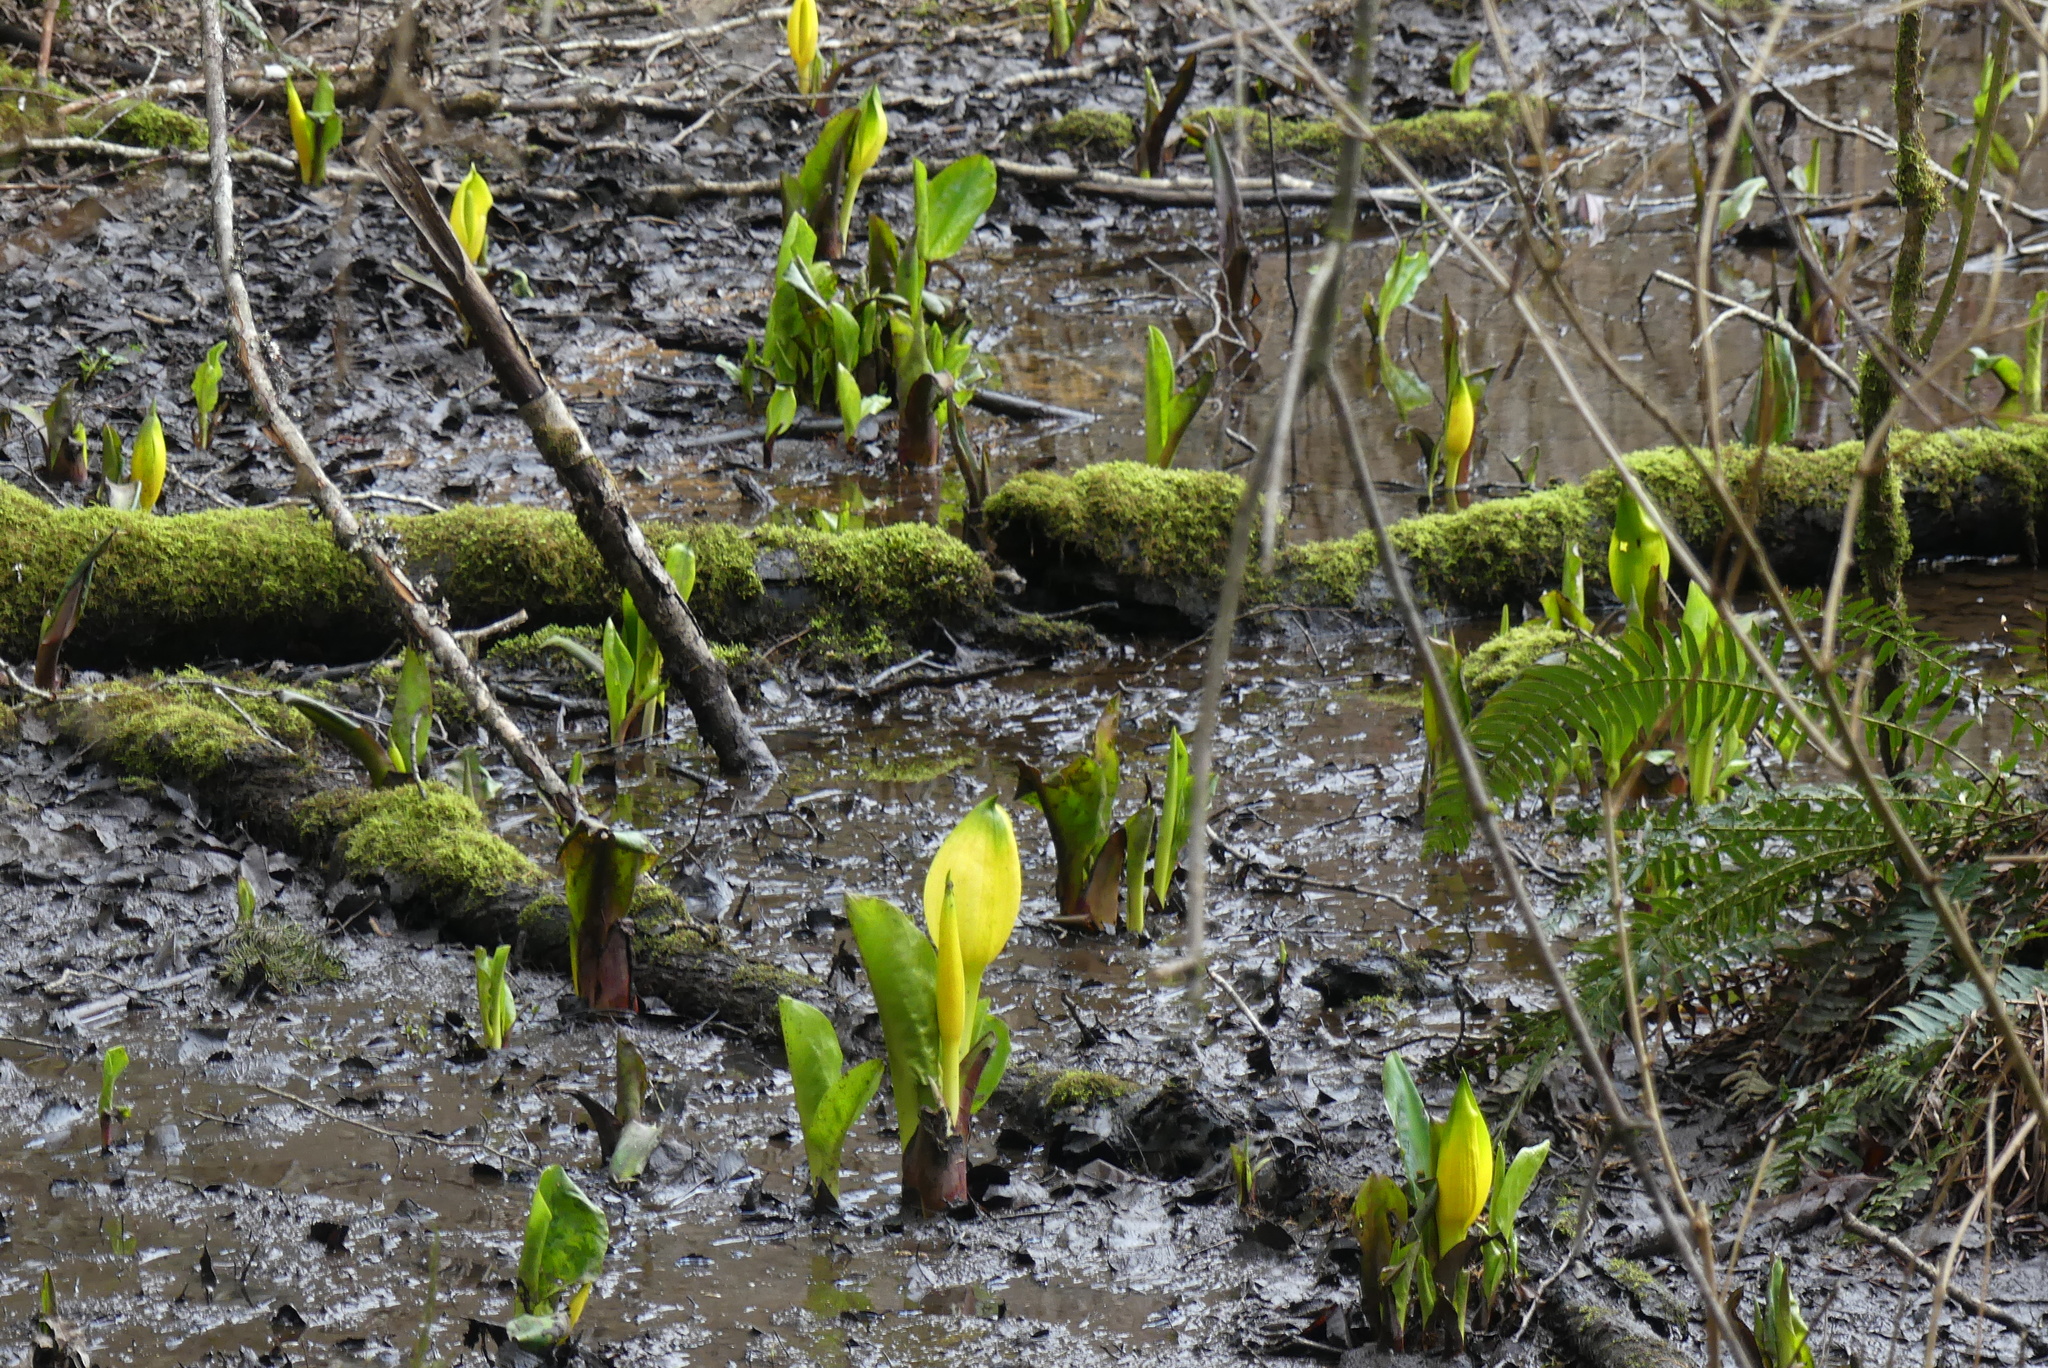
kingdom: Plantae
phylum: Tracheophyta
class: Liliopsida
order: Alismatales
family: Araceae
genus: Lysichiton
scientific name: Lysichiton americanus
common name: American skunk cabbage
